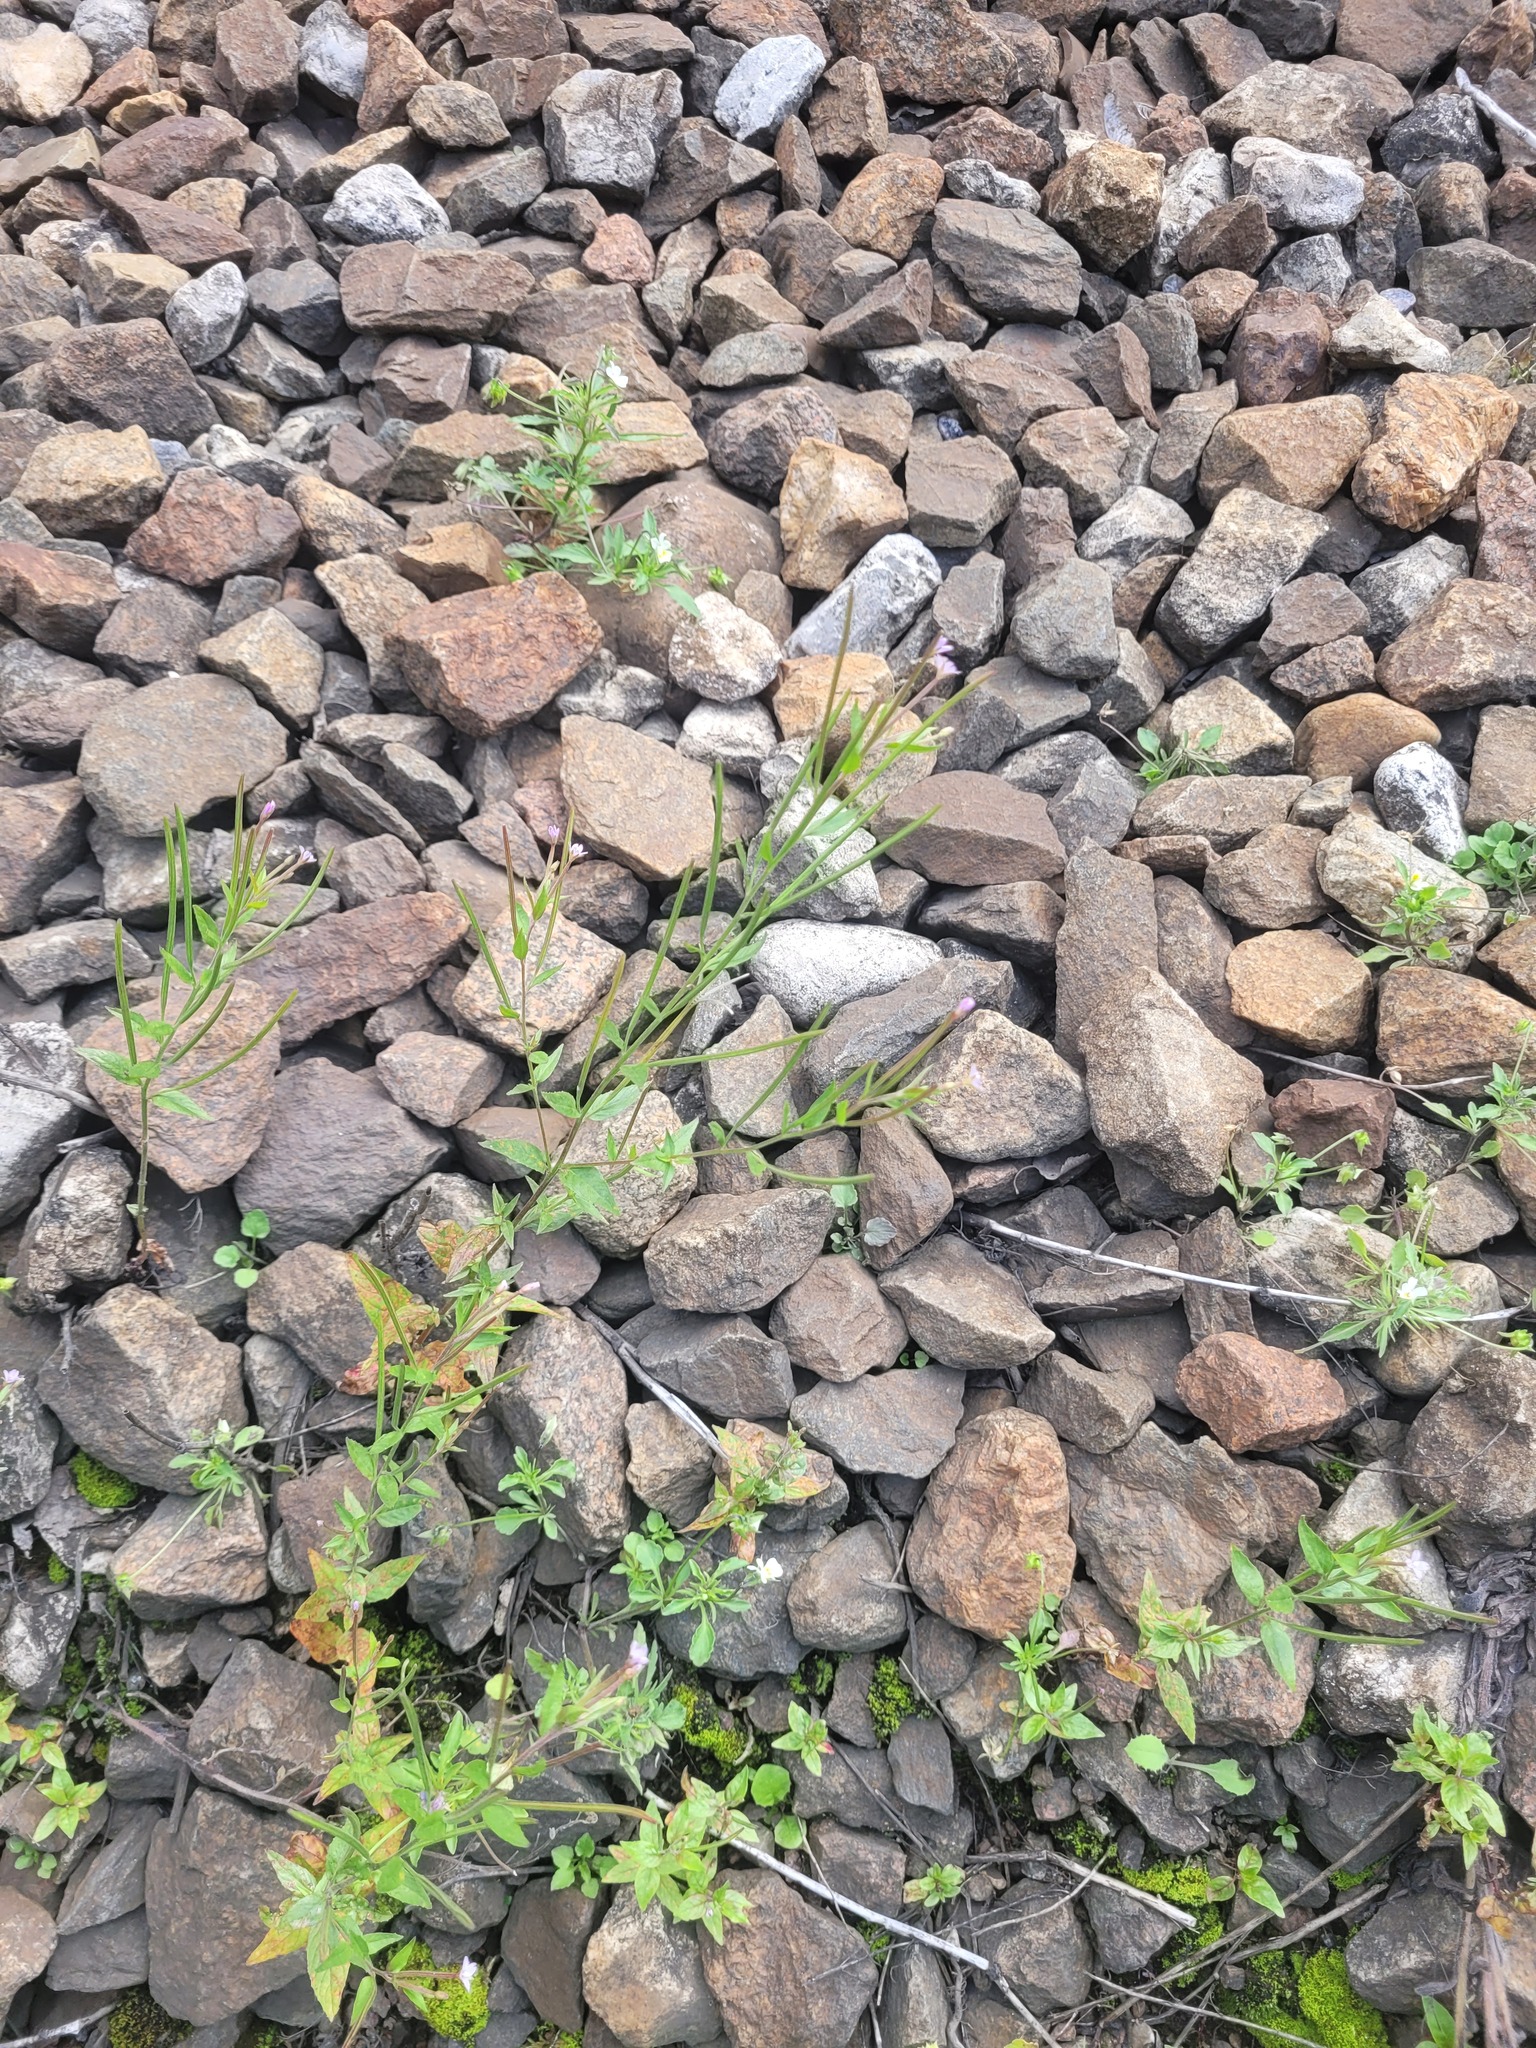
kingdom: Plantae
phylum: Tracheophyta
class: Magnoliopsida
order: Myrtales
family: Onagraceae
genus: Epilobium
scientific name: Epilobium ciliatum
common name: American willowherb
